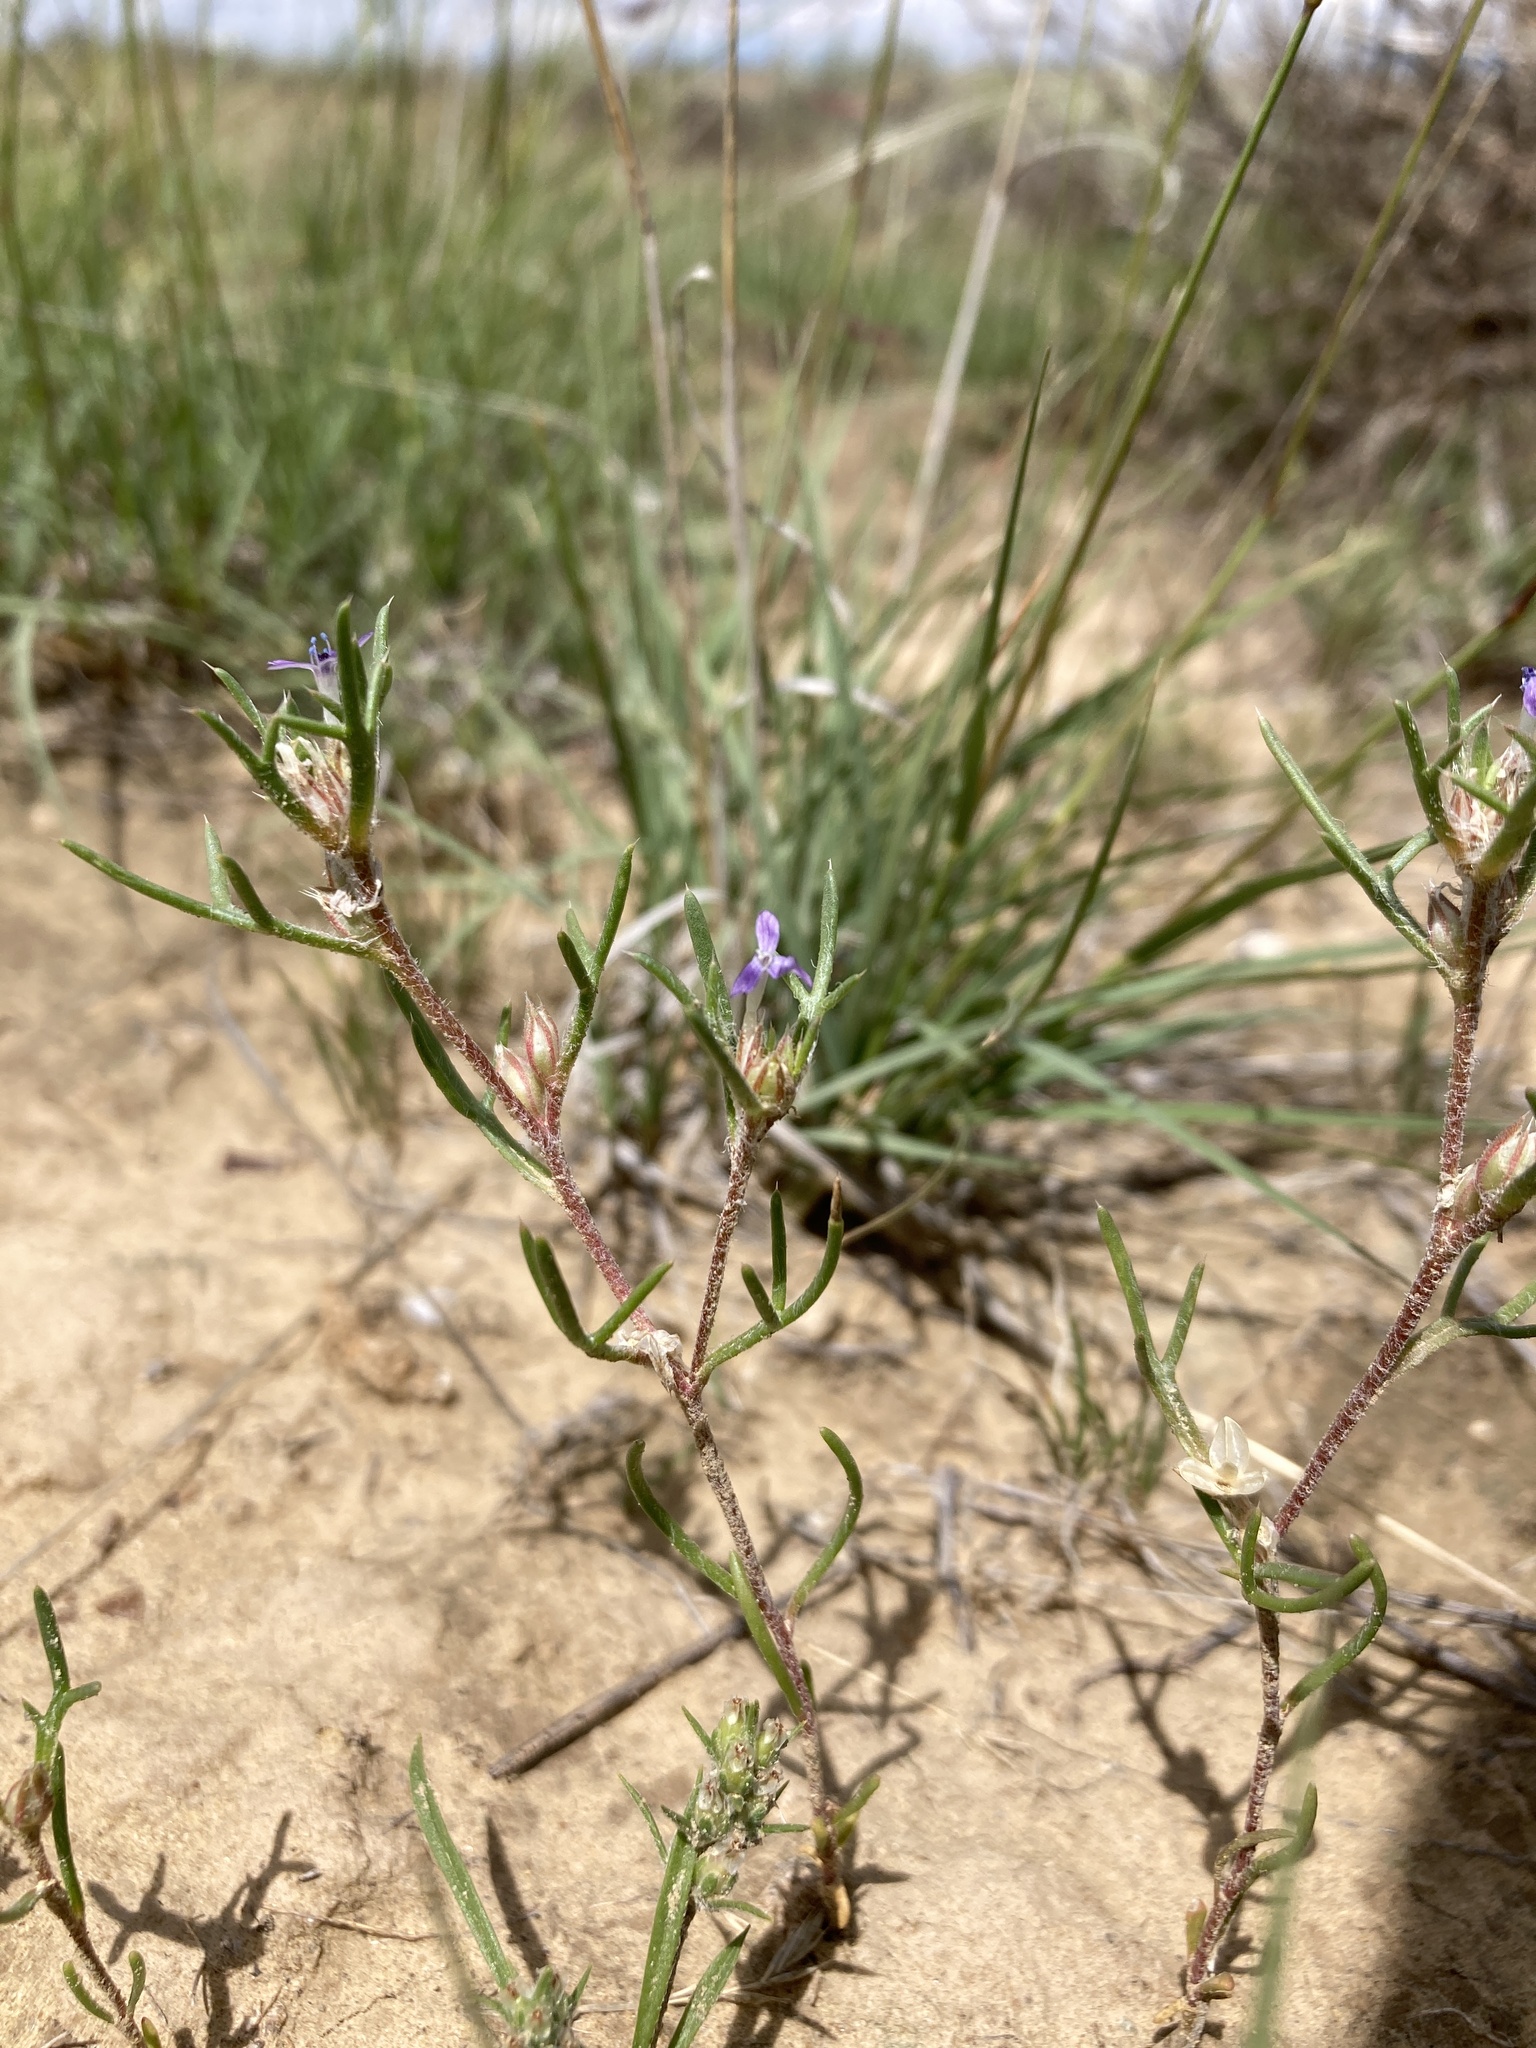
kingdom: Plantae
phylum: Tracheophyta
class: Magnoliopsida
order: Ericales
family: Polemoniaceae
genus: Ipomopsis
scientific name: Ipomopsis pumila
